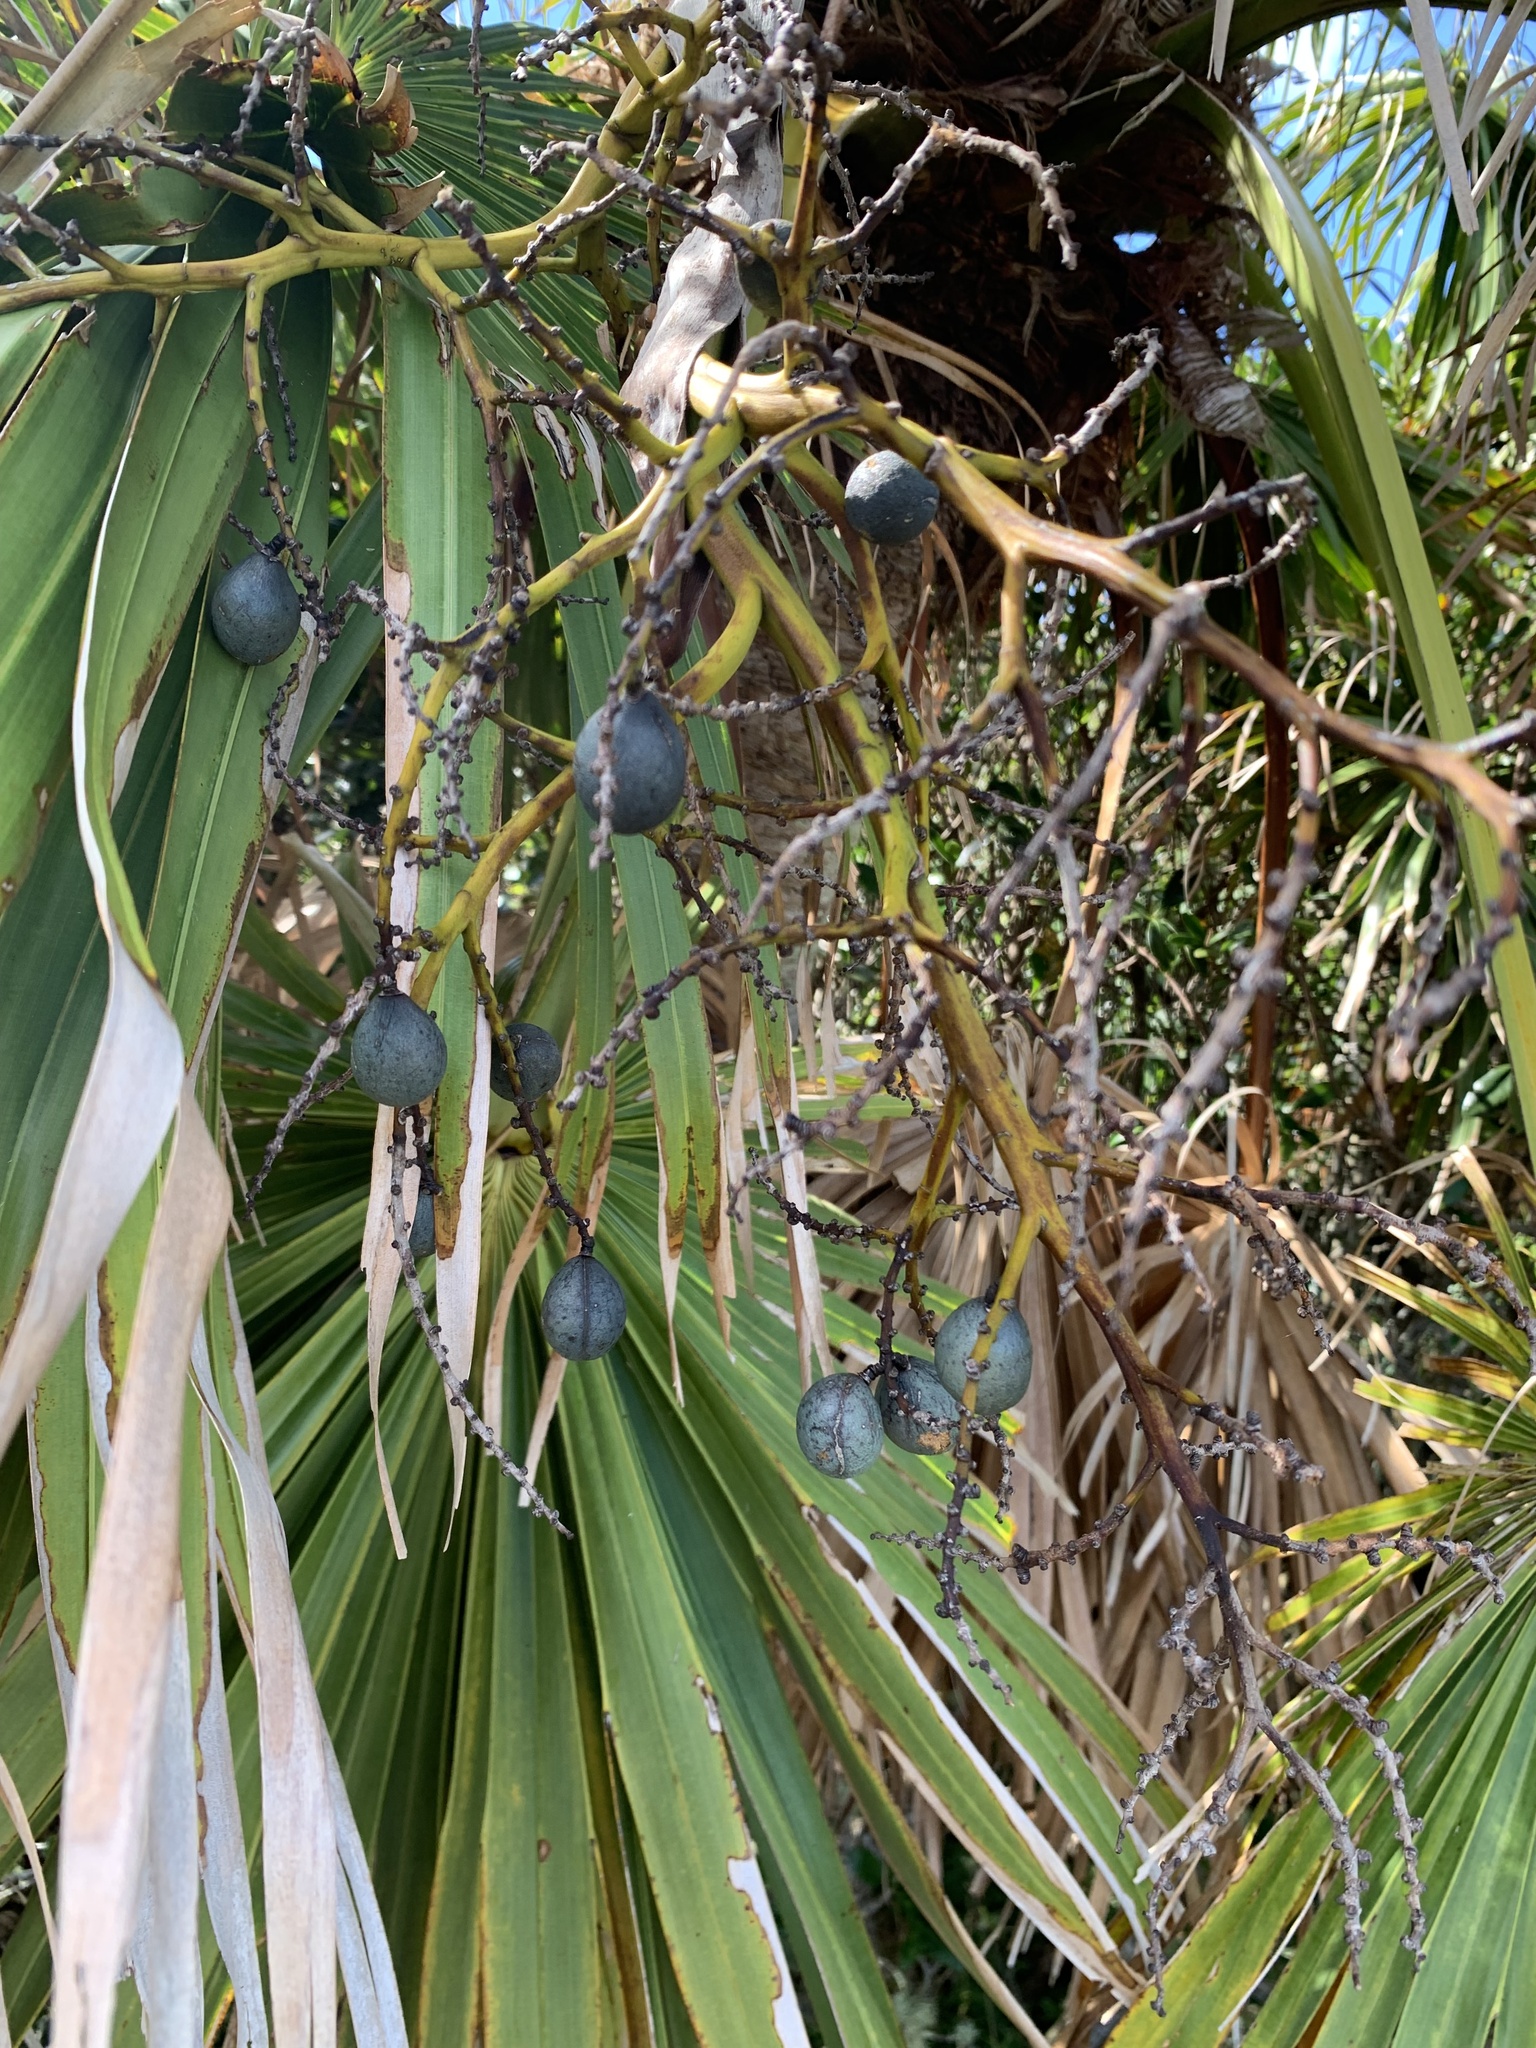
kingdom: Plantae
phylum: Tracheophyta
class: Liliopsida
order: Arecales
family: Arecaceae
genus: Livistona
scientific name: Livistona boninensis
